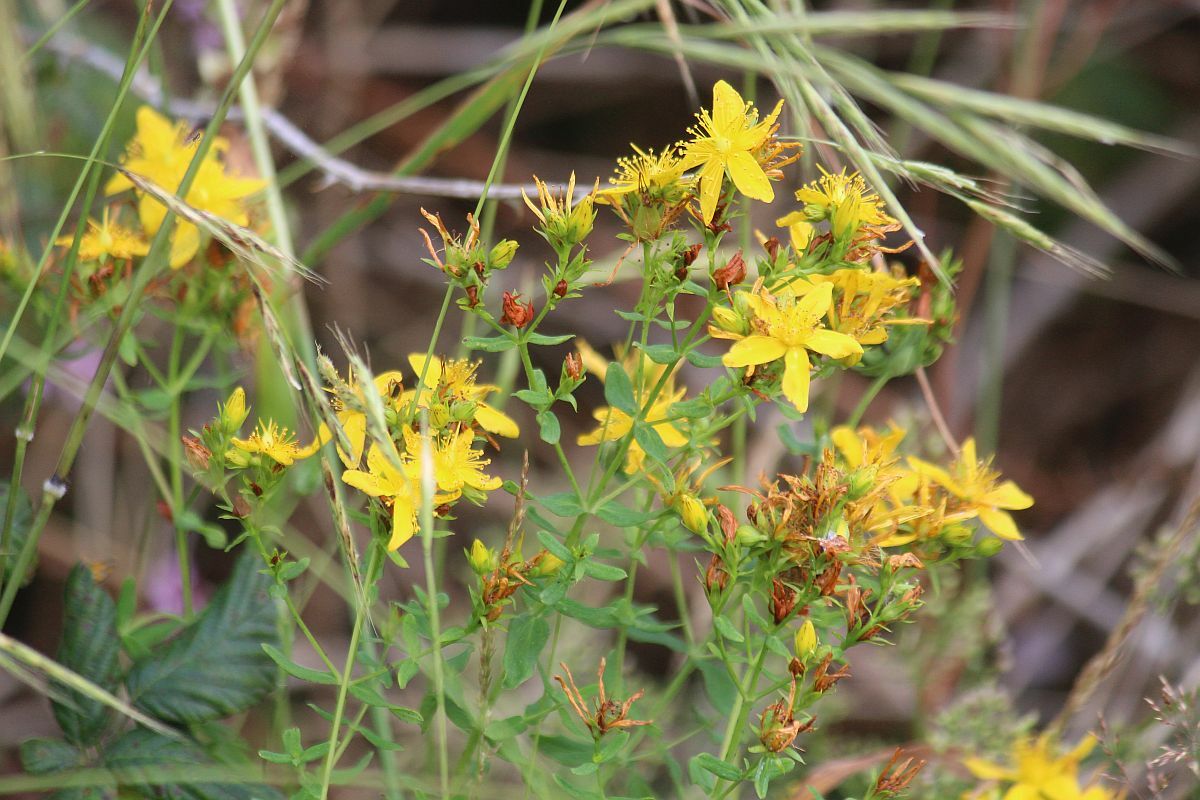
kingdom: Plantae
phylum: Tracheophyta
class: Magnoliopsida
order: Malpighiales
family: Hypericaceae
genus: Hypericum
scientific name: Hypericum perforatum
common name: Common st. johnswort
